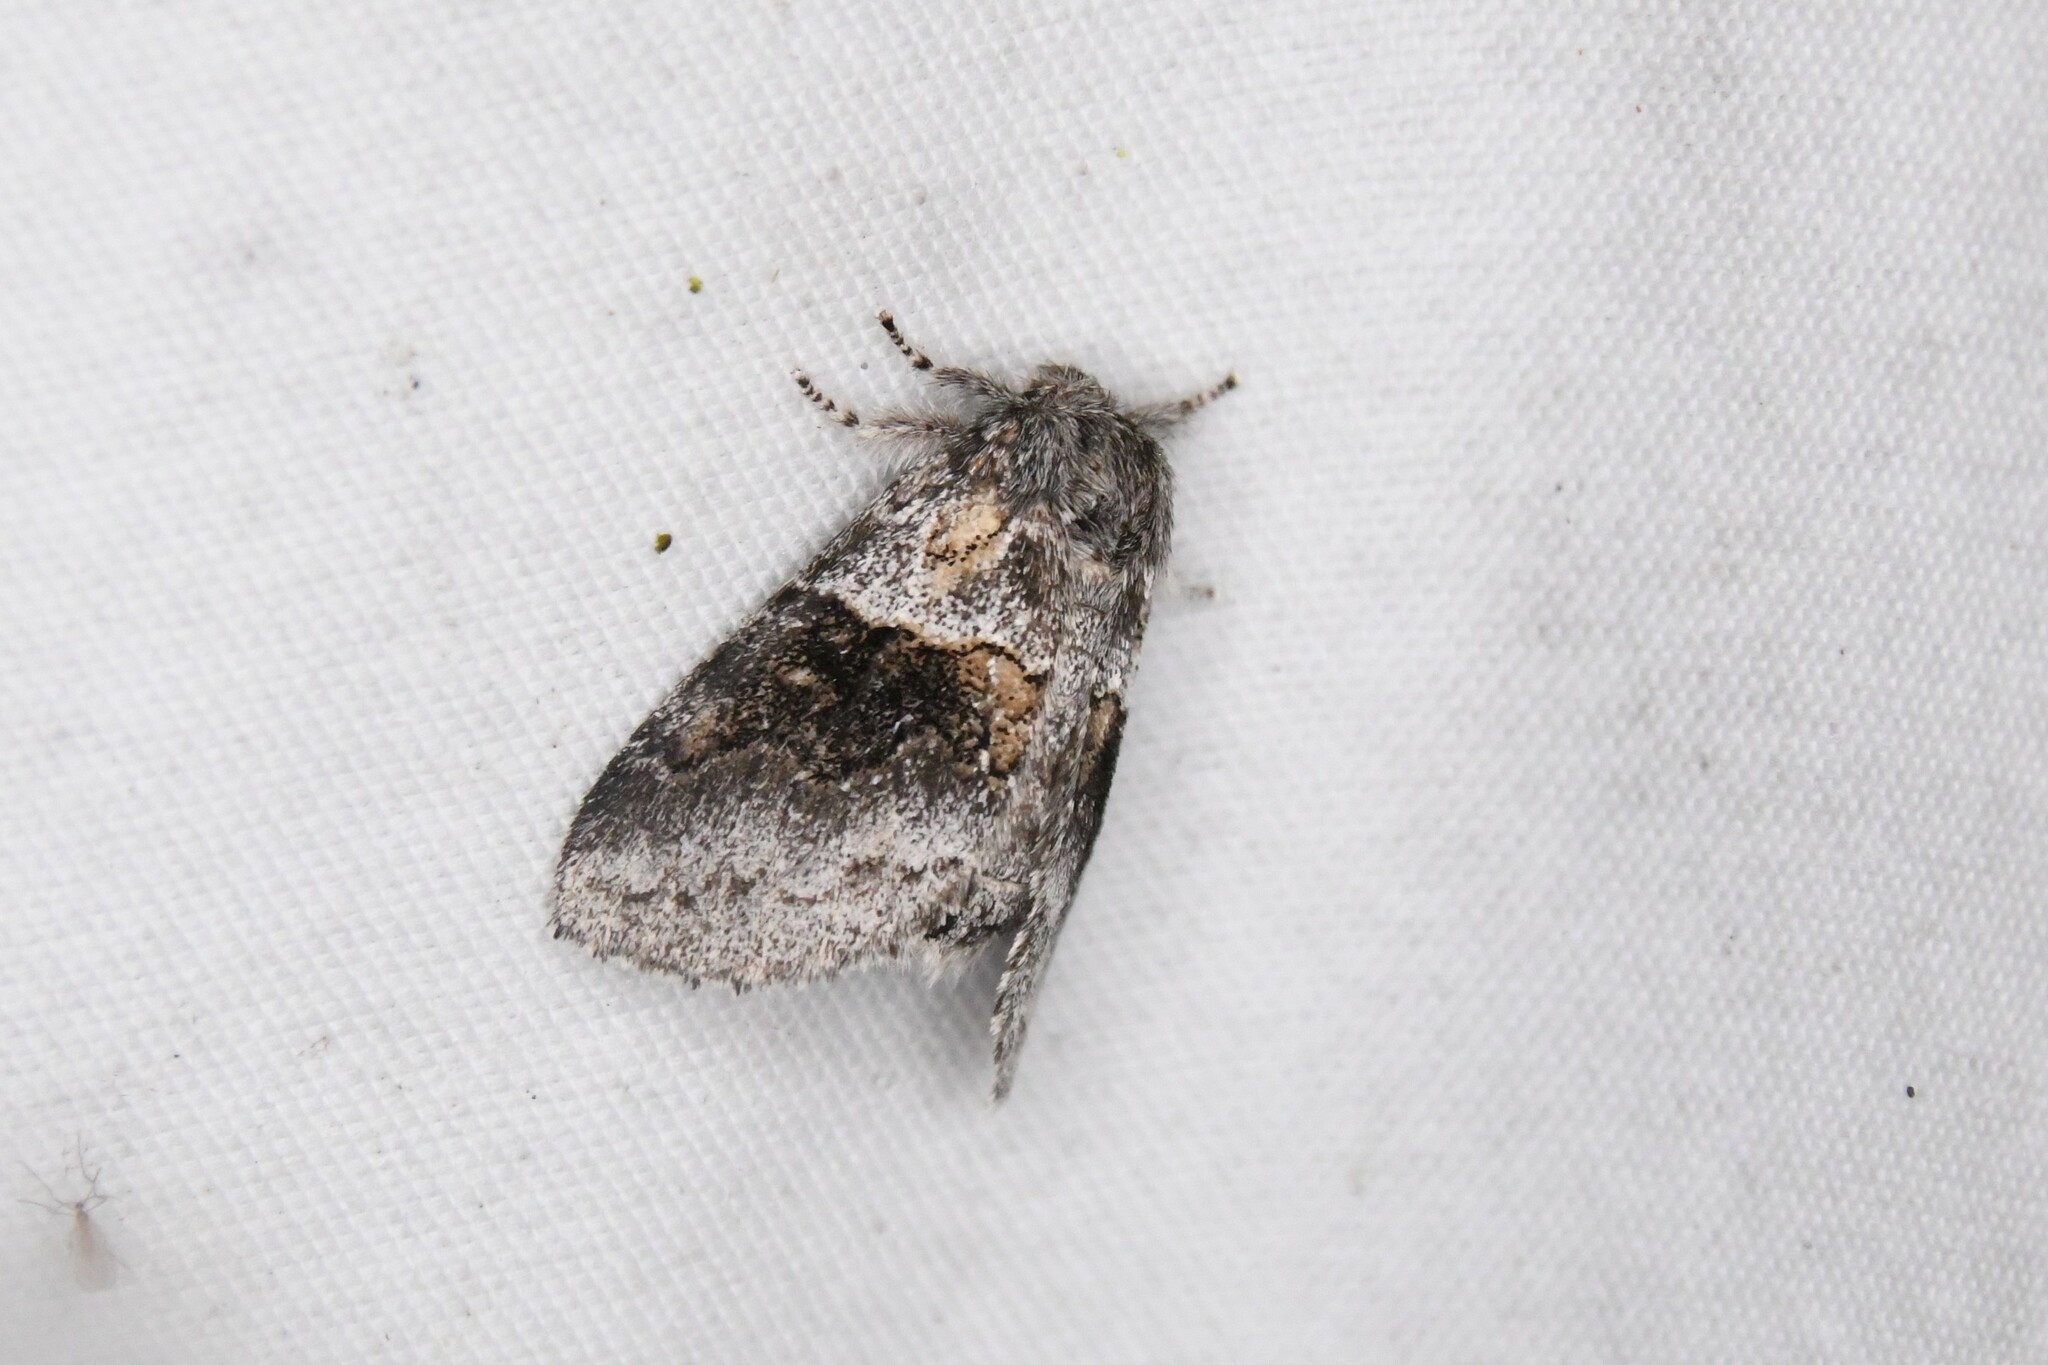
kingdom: Animalia
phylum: Arthropoda
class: Insecta
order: Lepidoptera
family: Notodontidae
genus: Gluphisia
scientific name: Gluphisia septentrionis
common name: Common gluphisia
